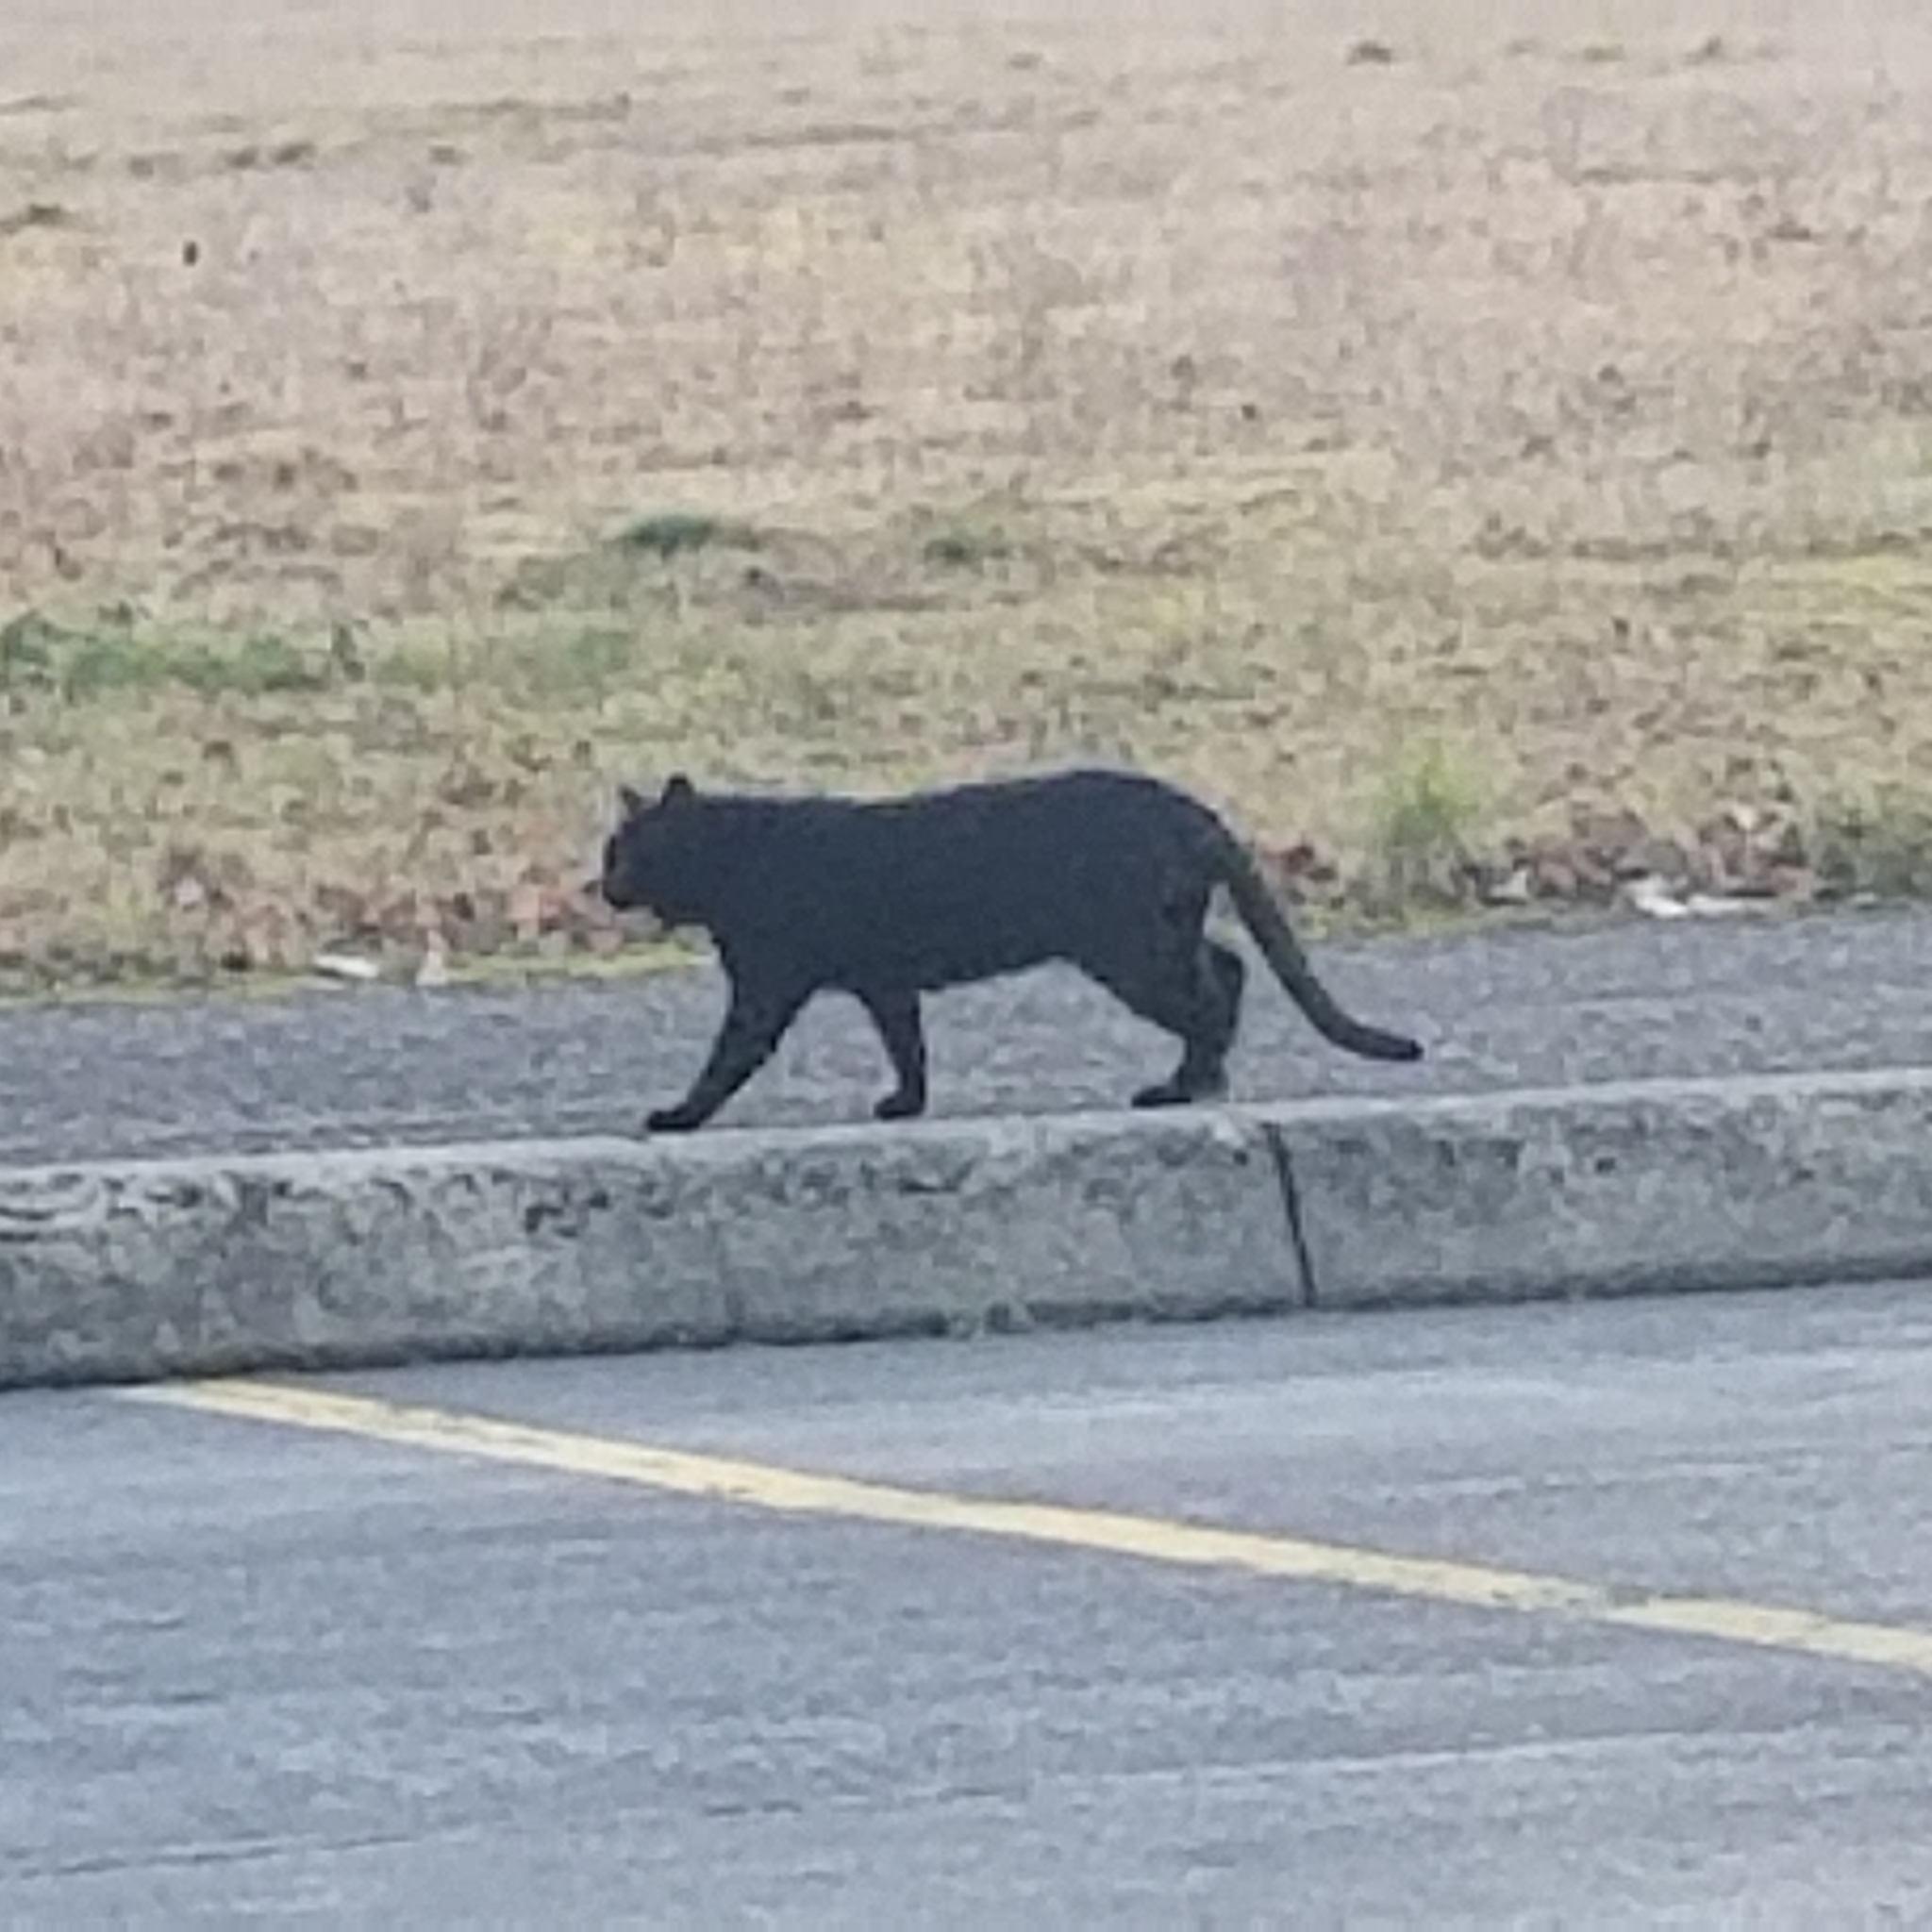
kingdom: Animalia
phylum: Chordata
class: Mammalia
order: Carnivora
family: Felidae
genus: Felis
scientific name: Felis catus
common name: Domestic cat
